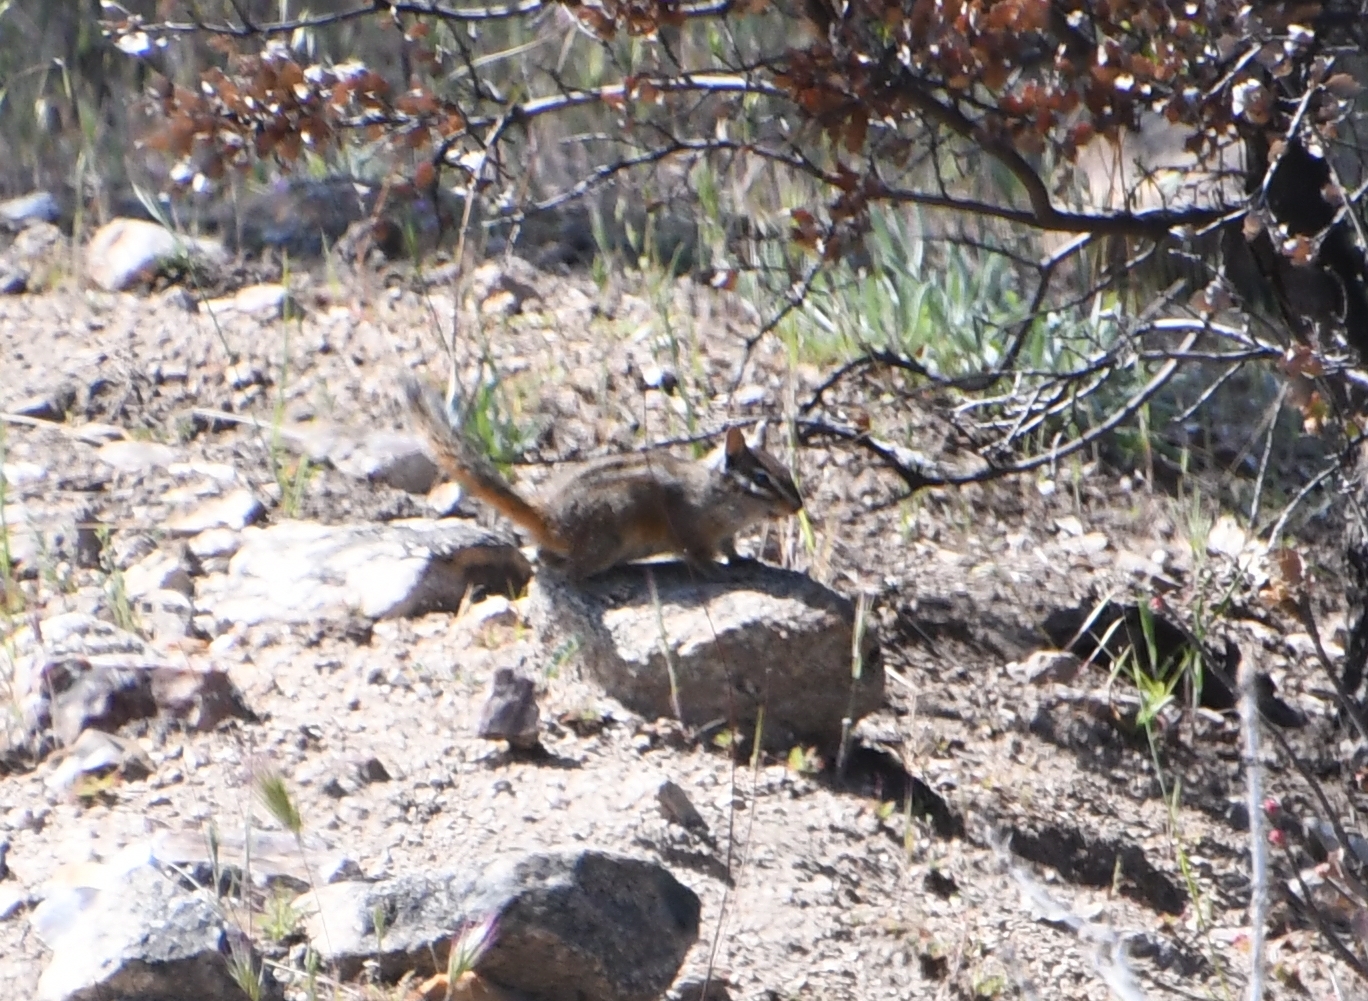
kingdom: Animalia
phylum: Chordata
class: Mammalia
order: Rodentia
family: Sciuridae
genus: Tamias
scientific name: Tamias merriami
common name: Merriam's chipmunk
